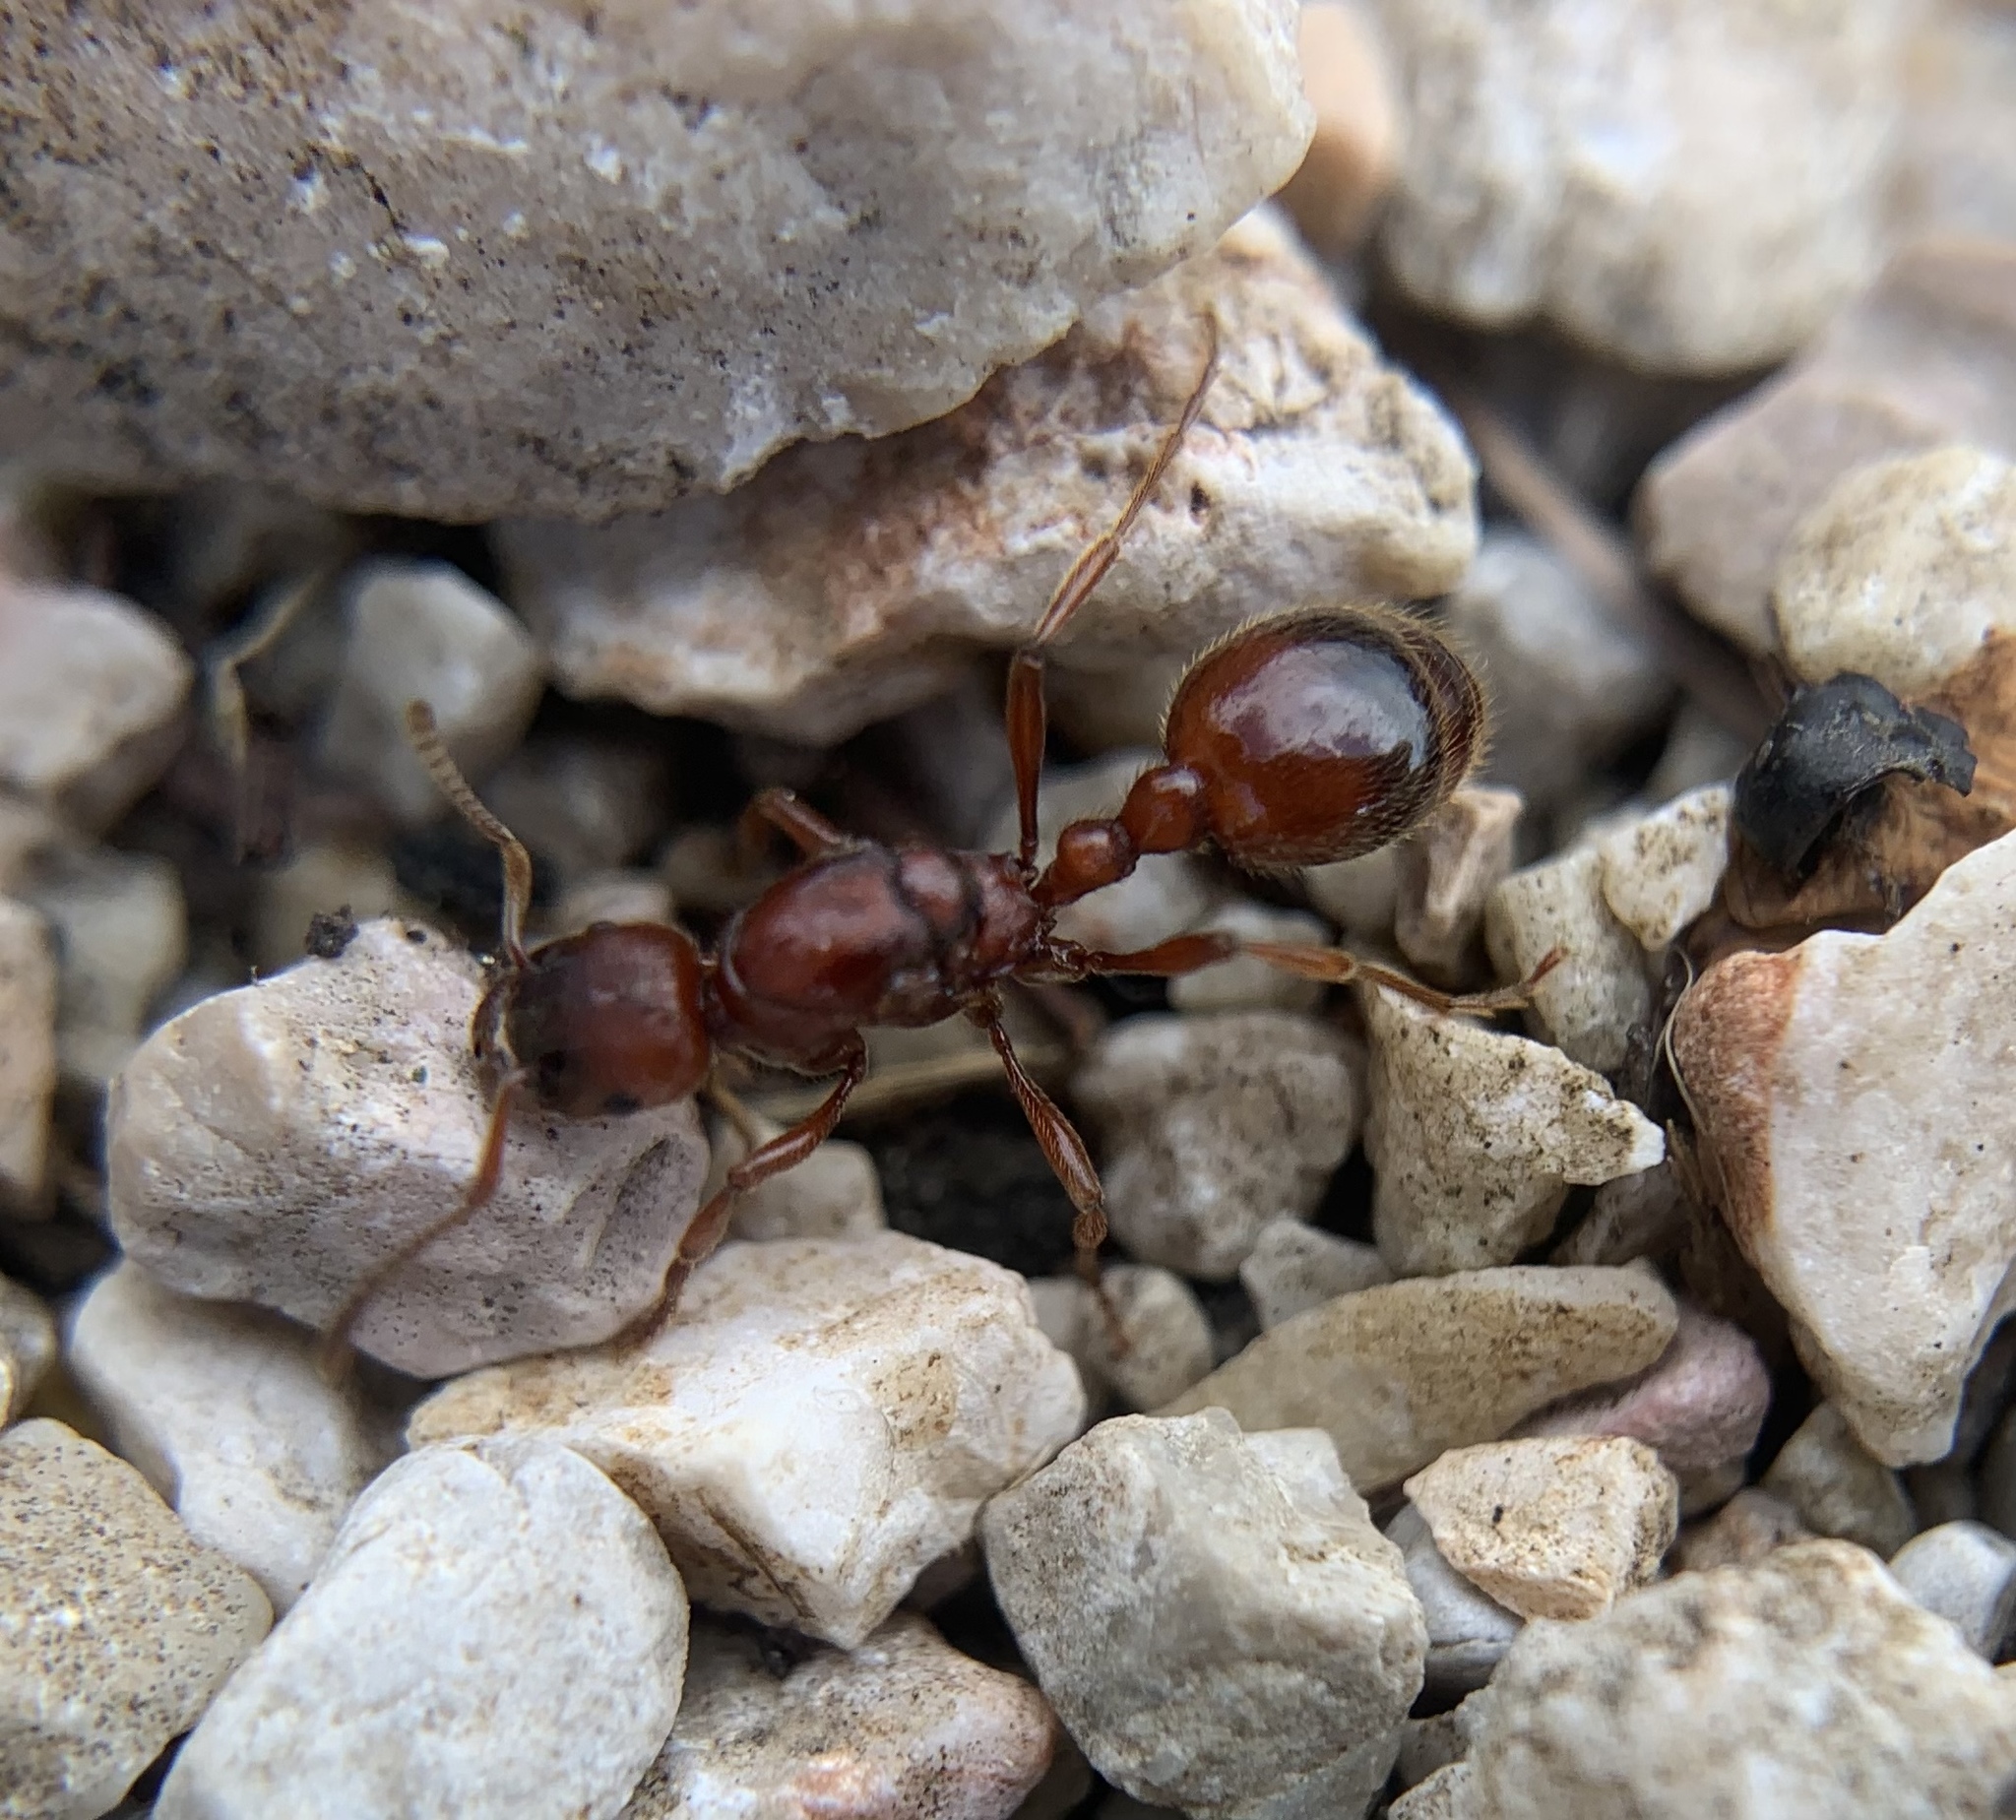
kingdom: Animalia
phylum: Arthropoda
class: Insecta
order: Hymenoptera
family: Formicidae
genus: Manica
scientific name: Manica rubida
